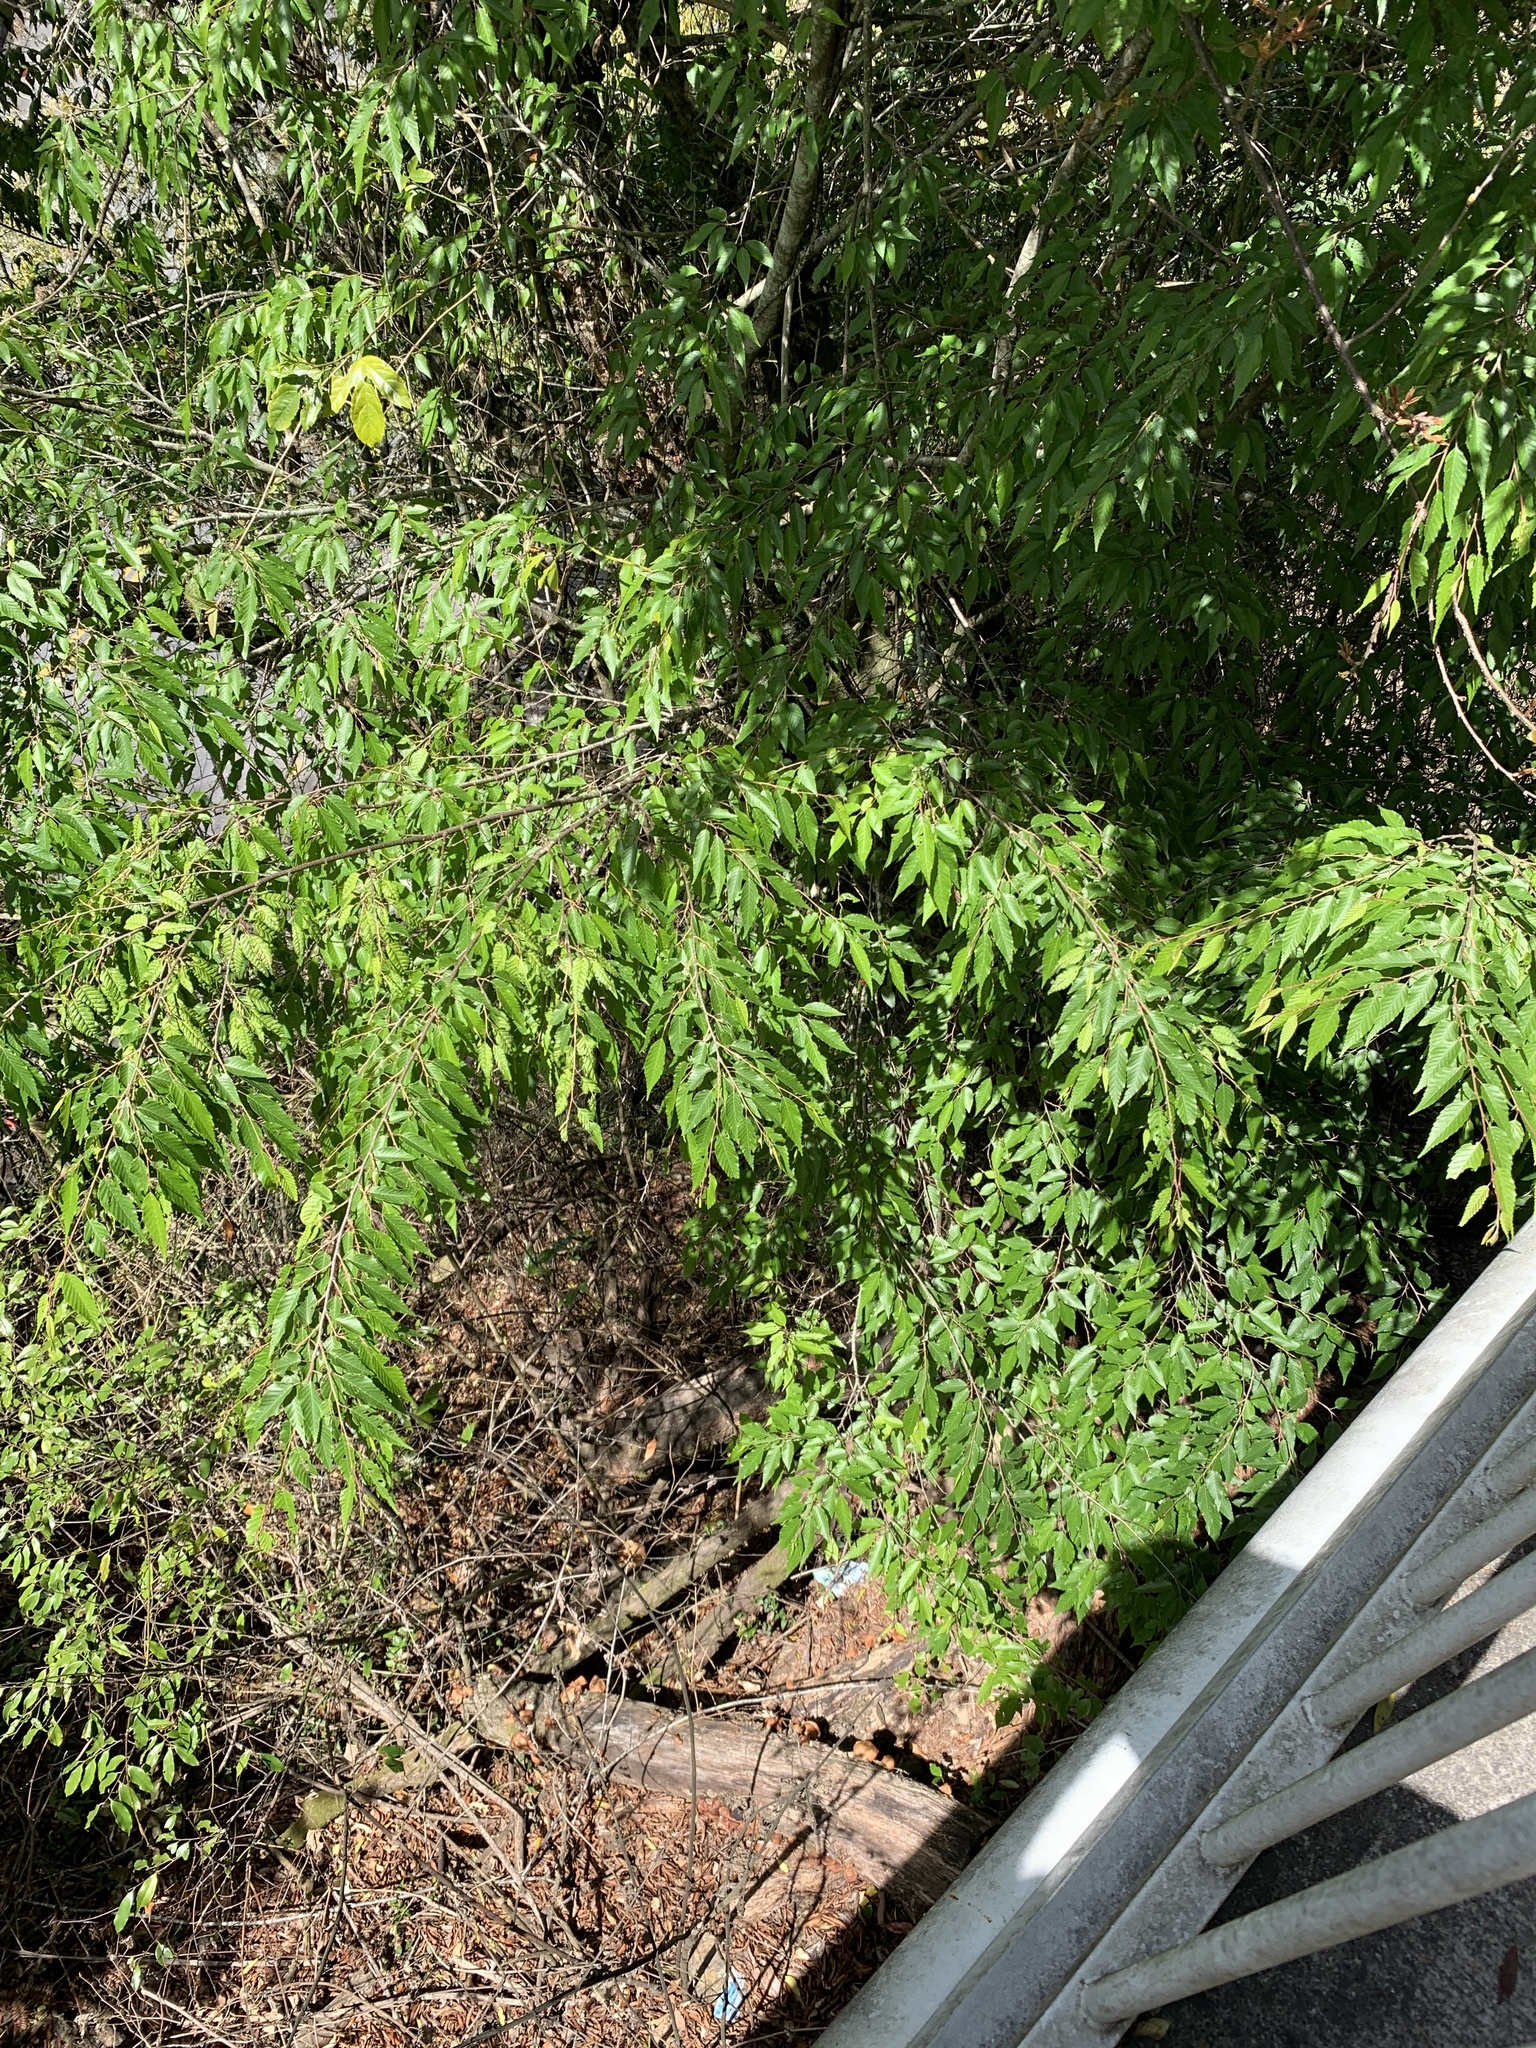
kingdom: Plantae
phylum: Tracheophyta
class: Magnoliopsida
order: Rosales
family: Ulmaceae
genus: Zelkova
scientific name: Zelkova serrata
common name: Japanese zelkova
